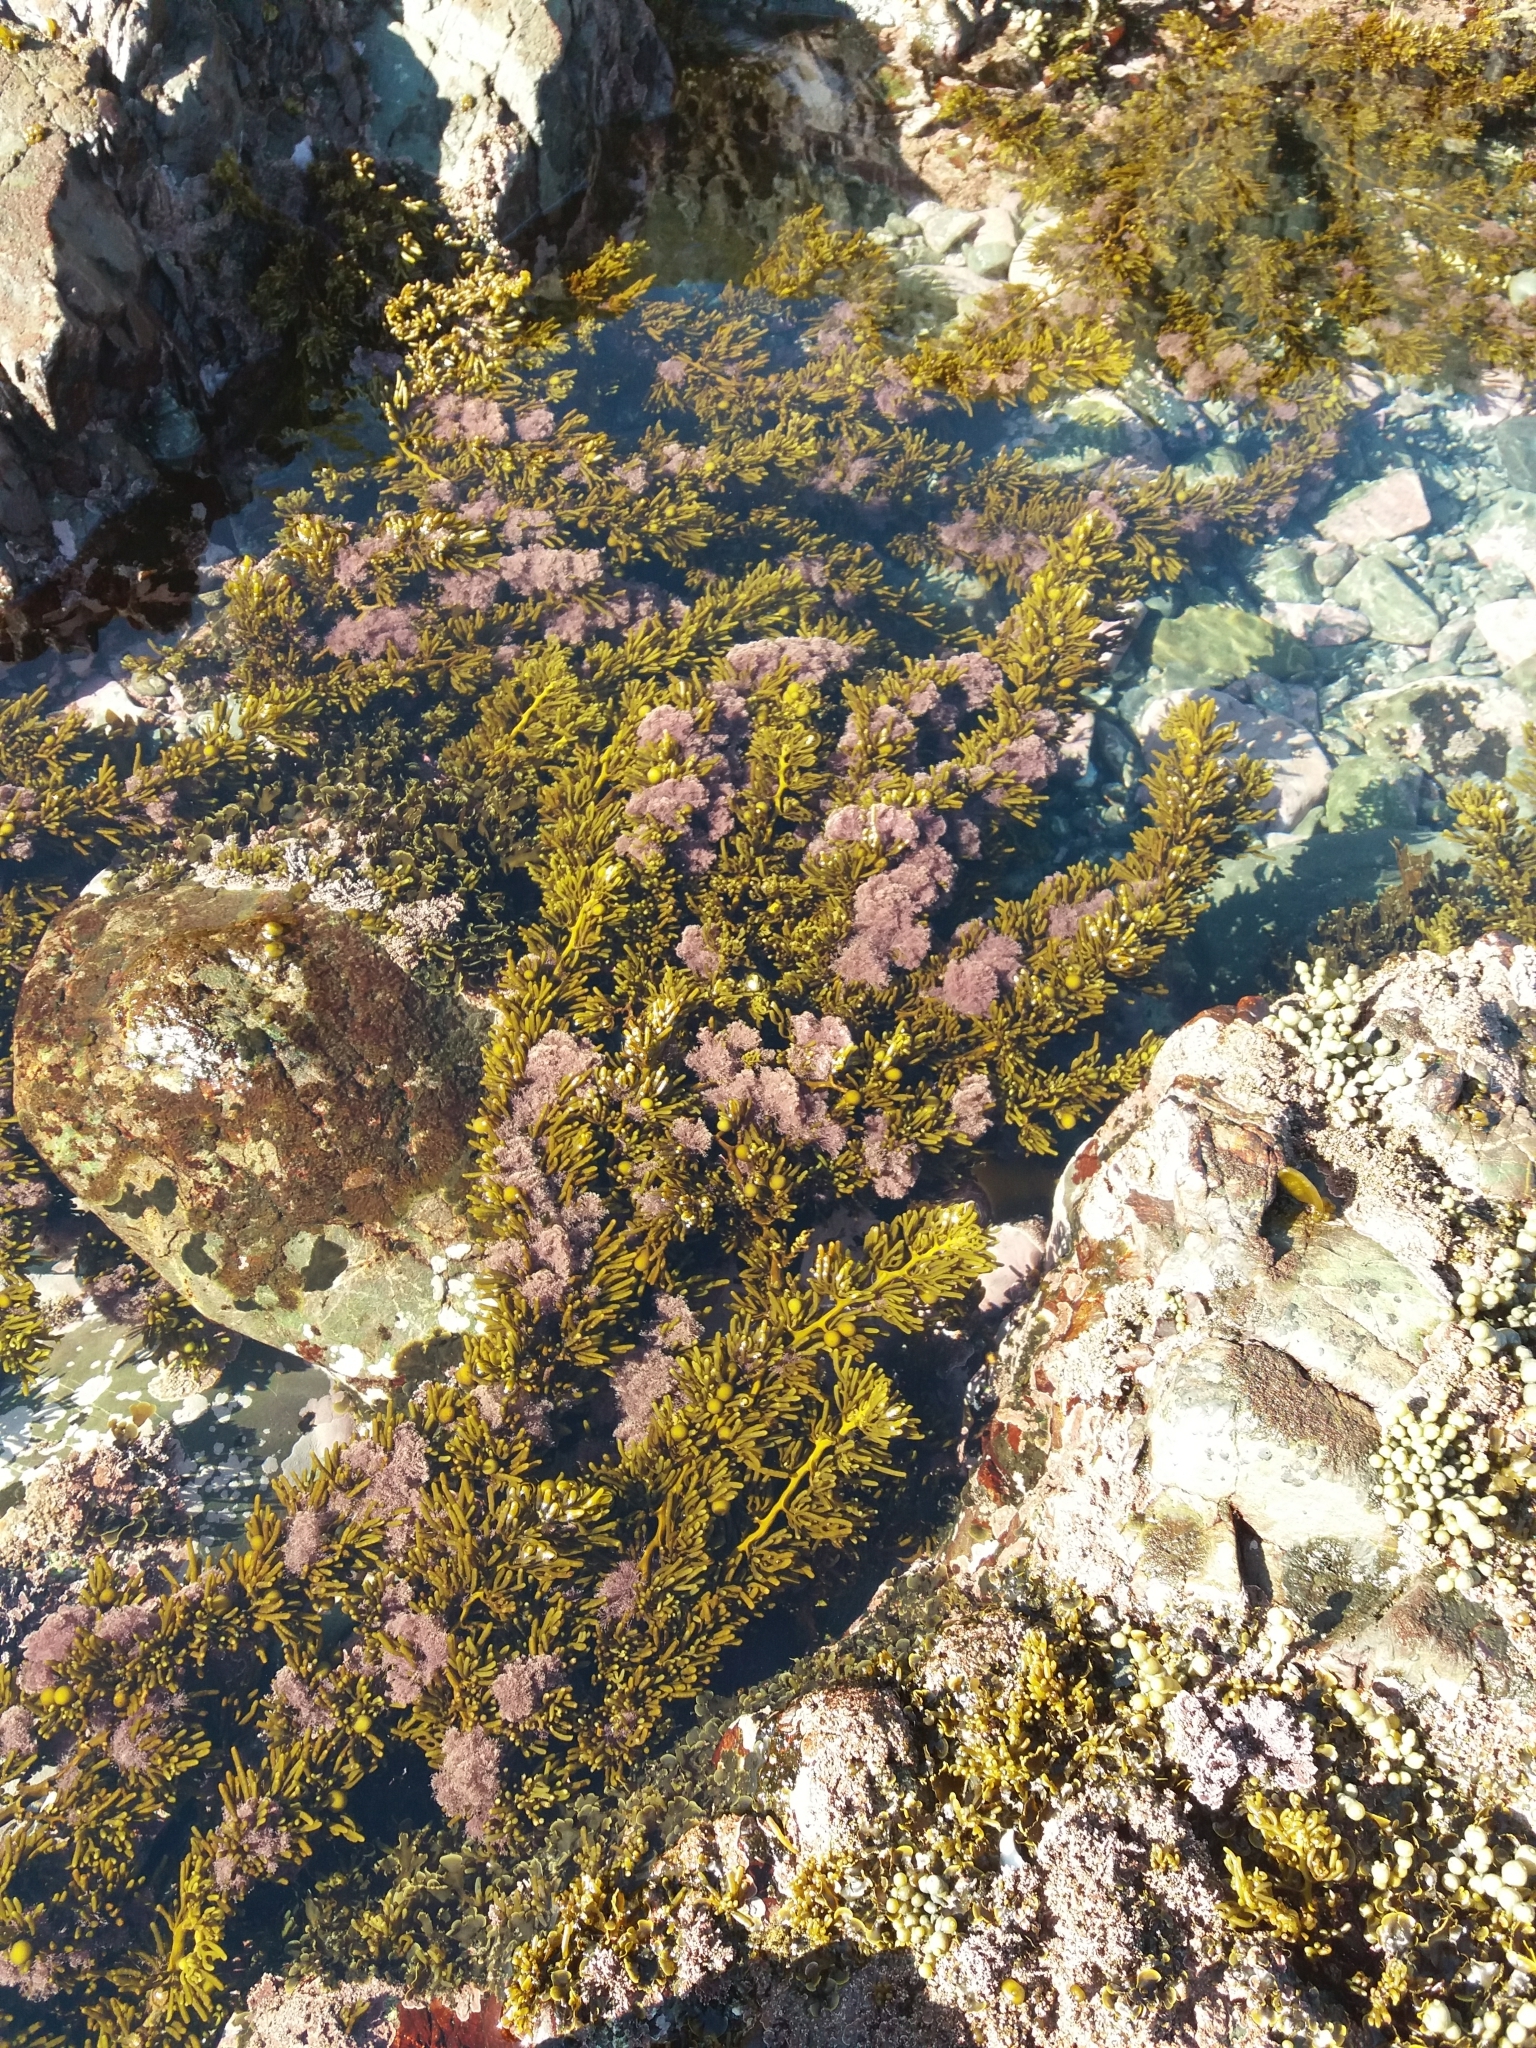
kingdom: Chromista
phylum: Ochrophyta
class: Phaeophyceae
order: Fucales
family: Sargassaceae
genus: Cystophora
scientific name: Cystophora torulosa
